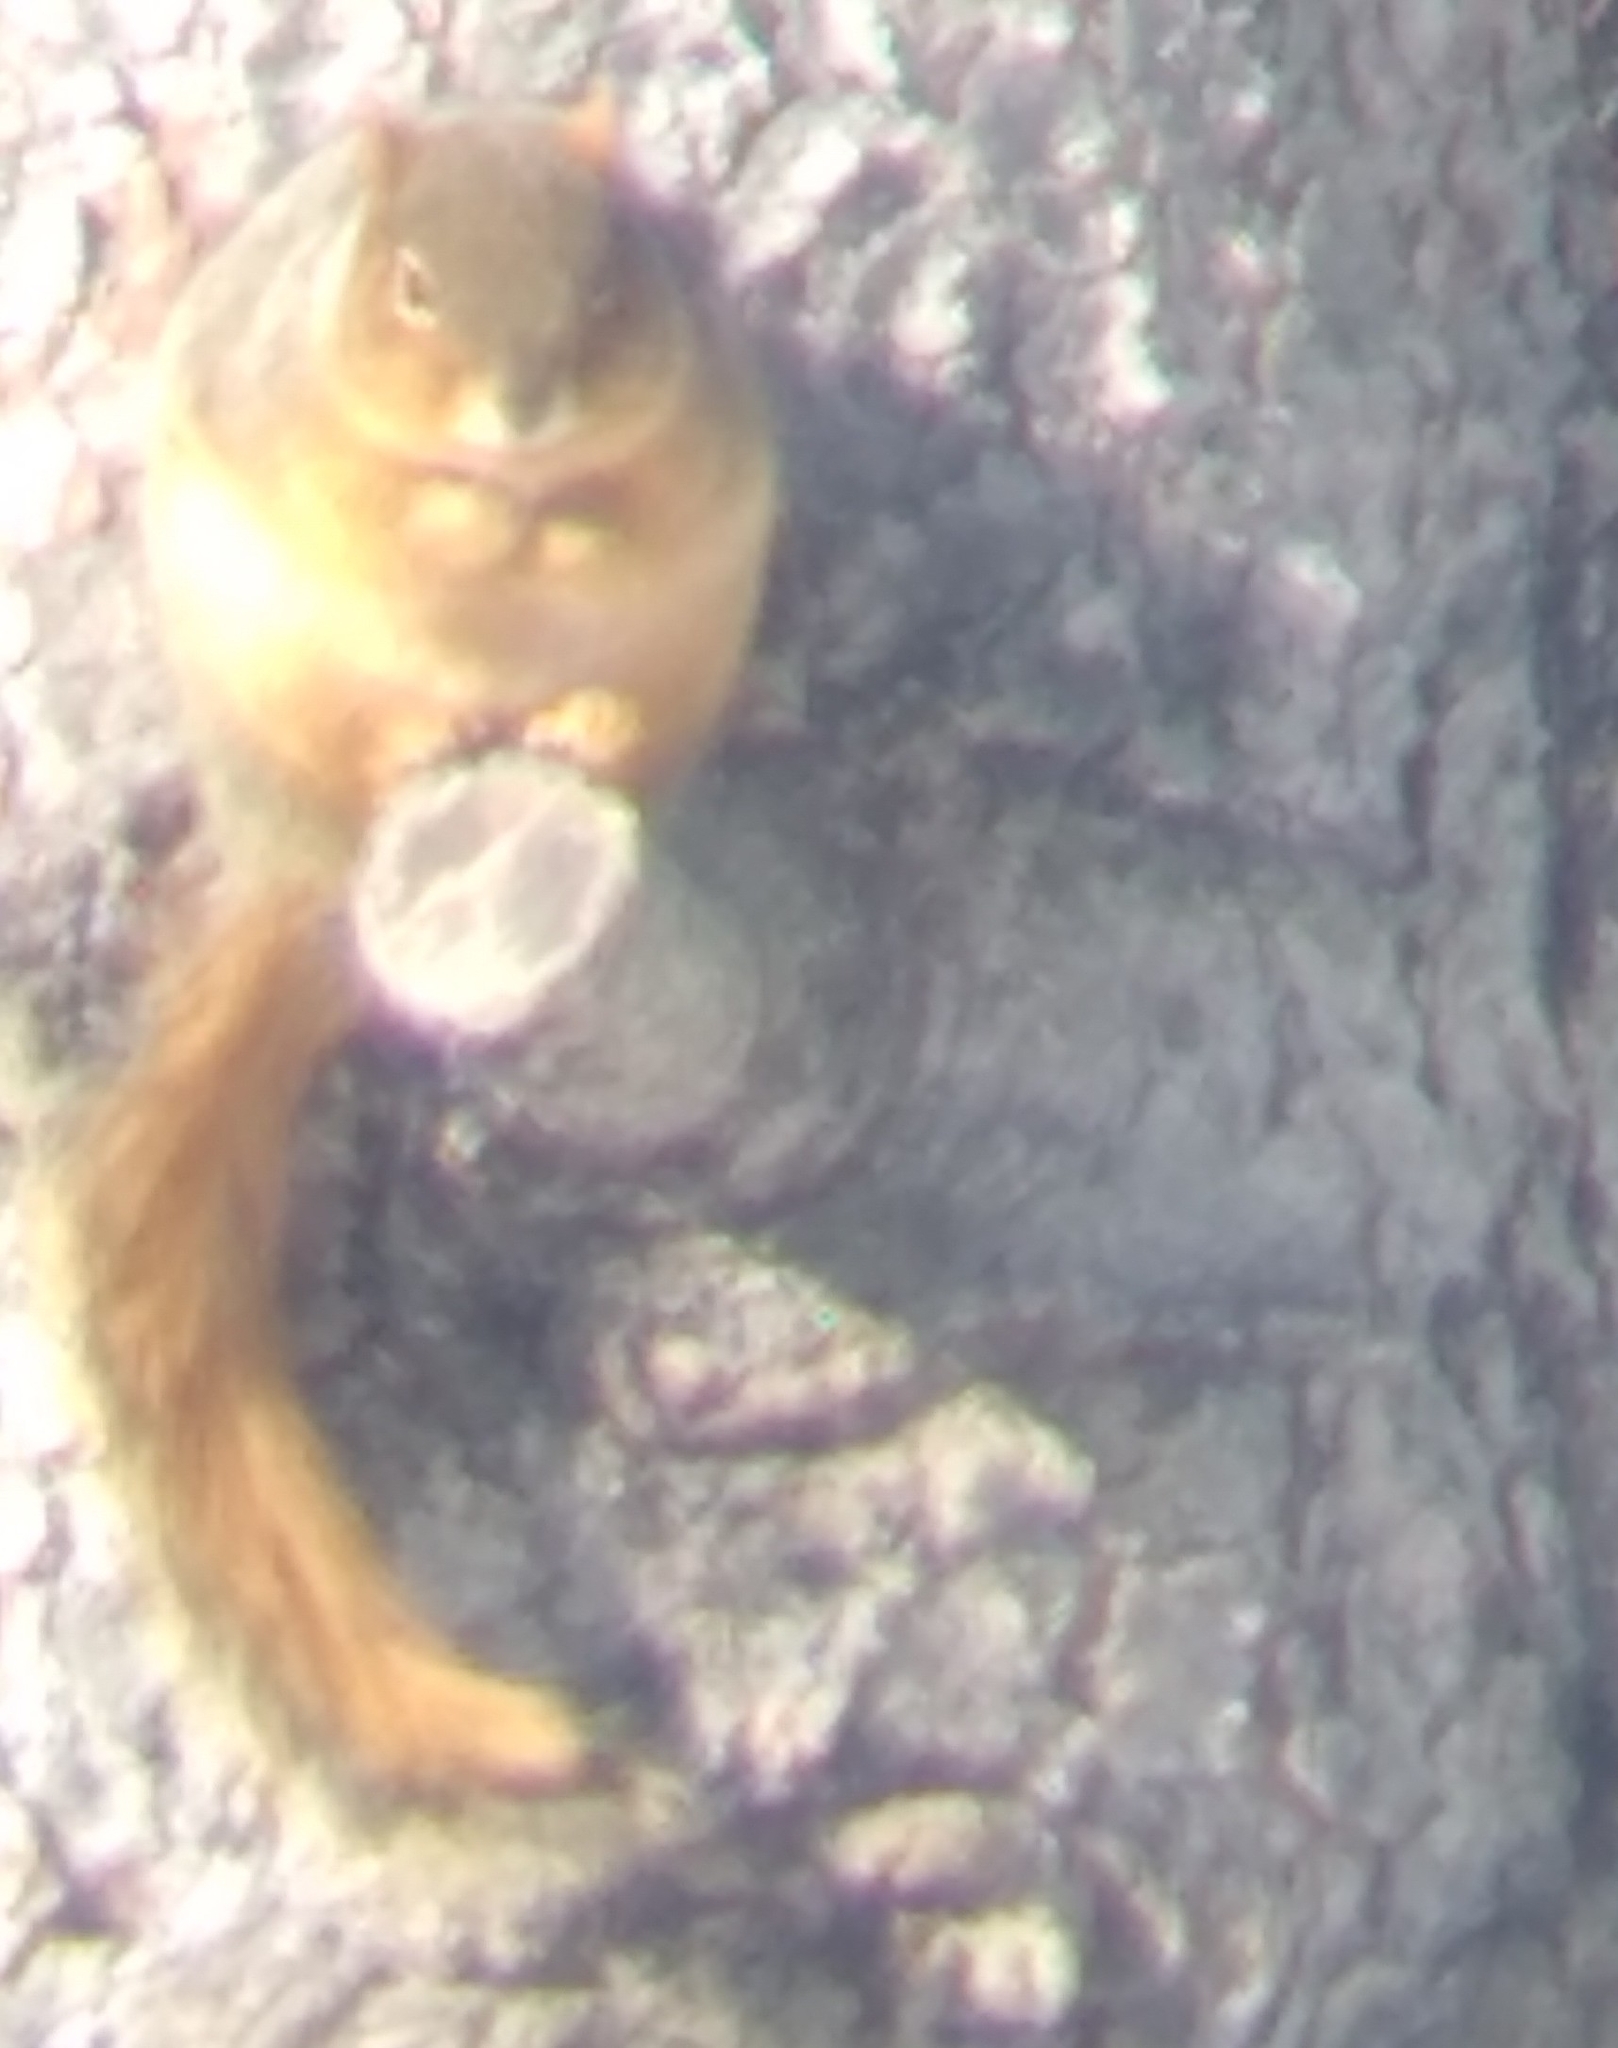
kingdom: Animalia
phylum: Chordata
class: Mammalia
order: Rodentia
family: Sciuridae
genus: Sciurus
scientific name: Sciurus niger
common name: Fox squirrel
